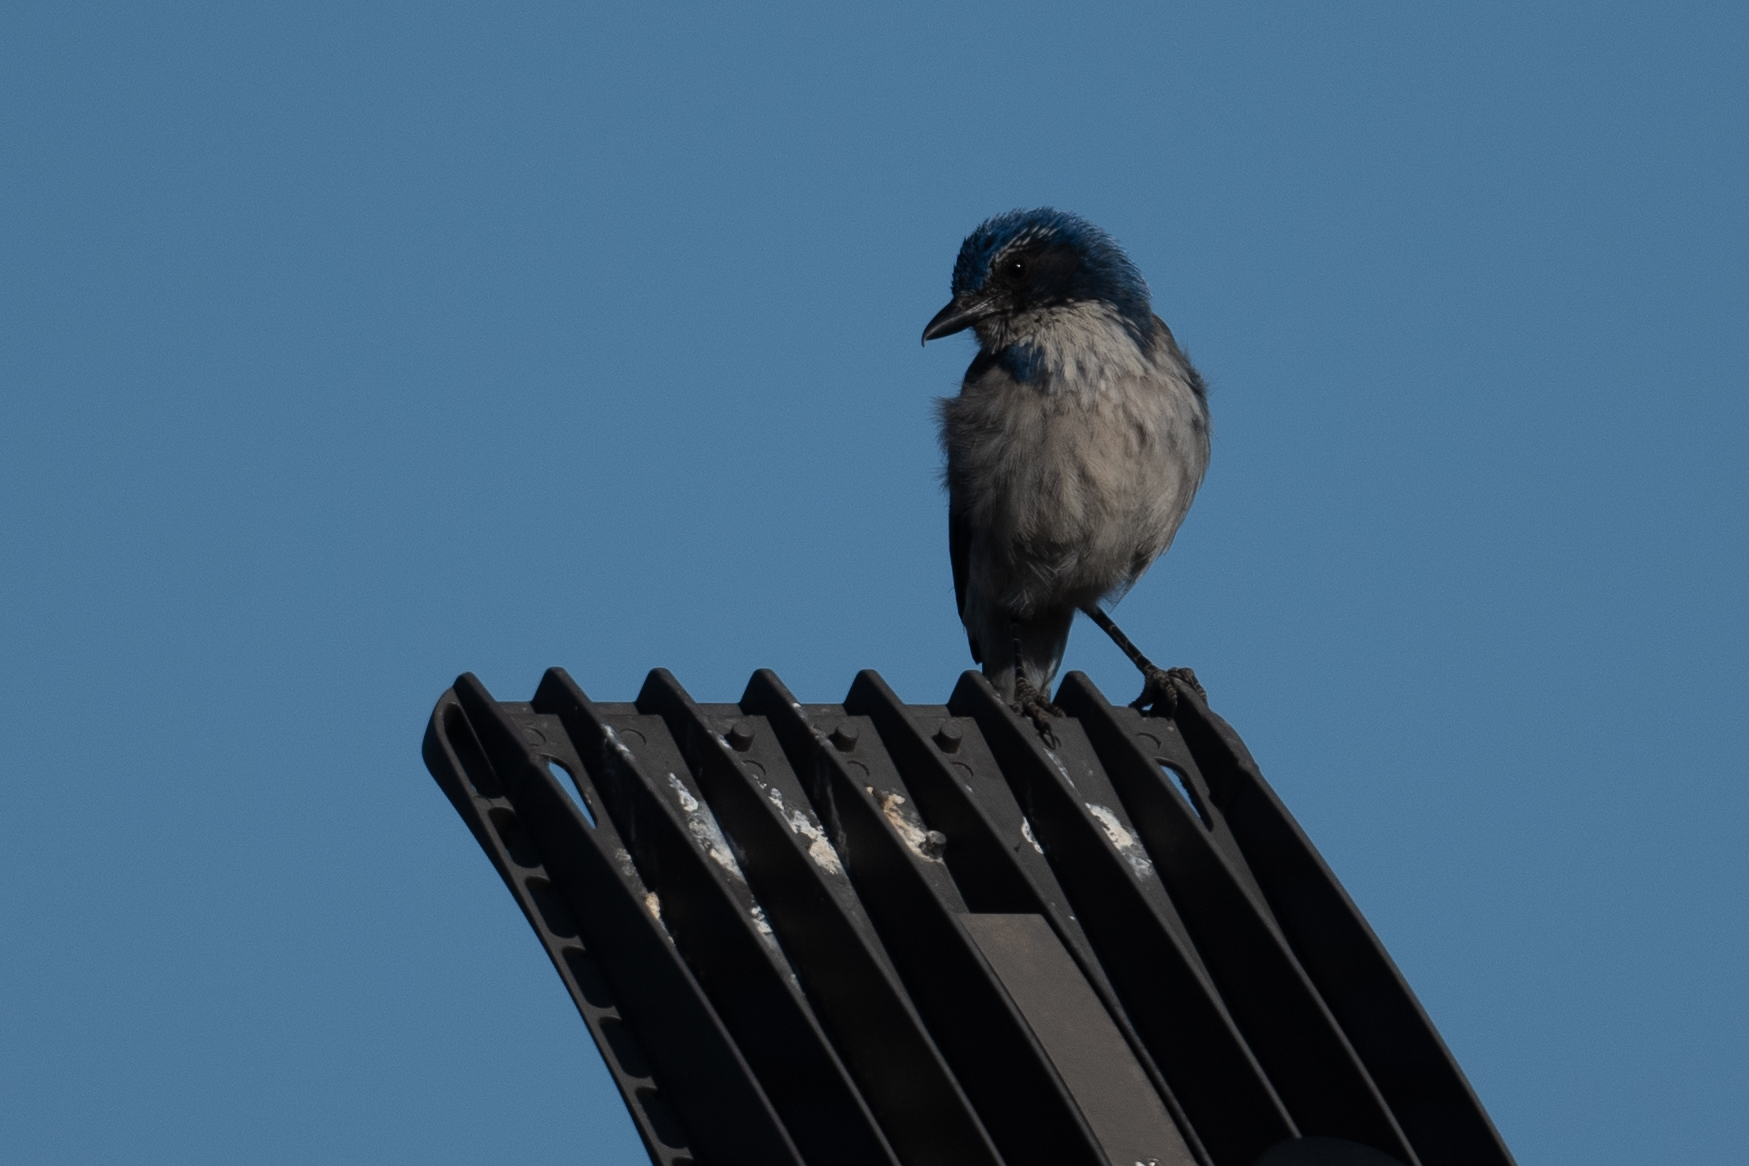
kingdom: Animalia
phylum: Chordata
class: Aves
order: Passeriformes
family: Corvidae
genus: Aphelocoma
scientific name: Aphelocoma californica
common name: California scrub-jay
